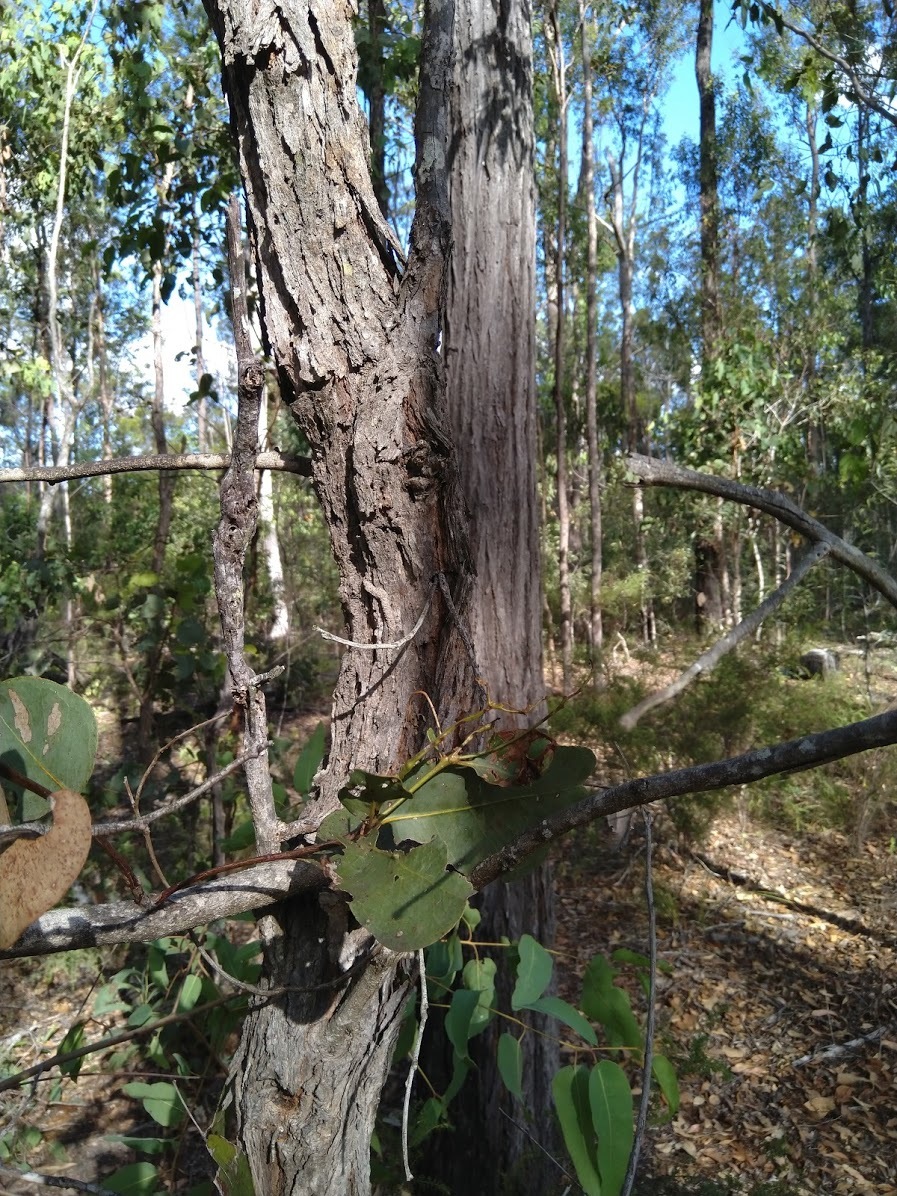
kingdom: Plantae
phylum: Tracheophyta
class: Magnoliopsida
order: Myrtales
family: Myrtaceae
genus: Eucalyptus
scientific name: Eucalyptus fibrosa
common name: Red ironbark
